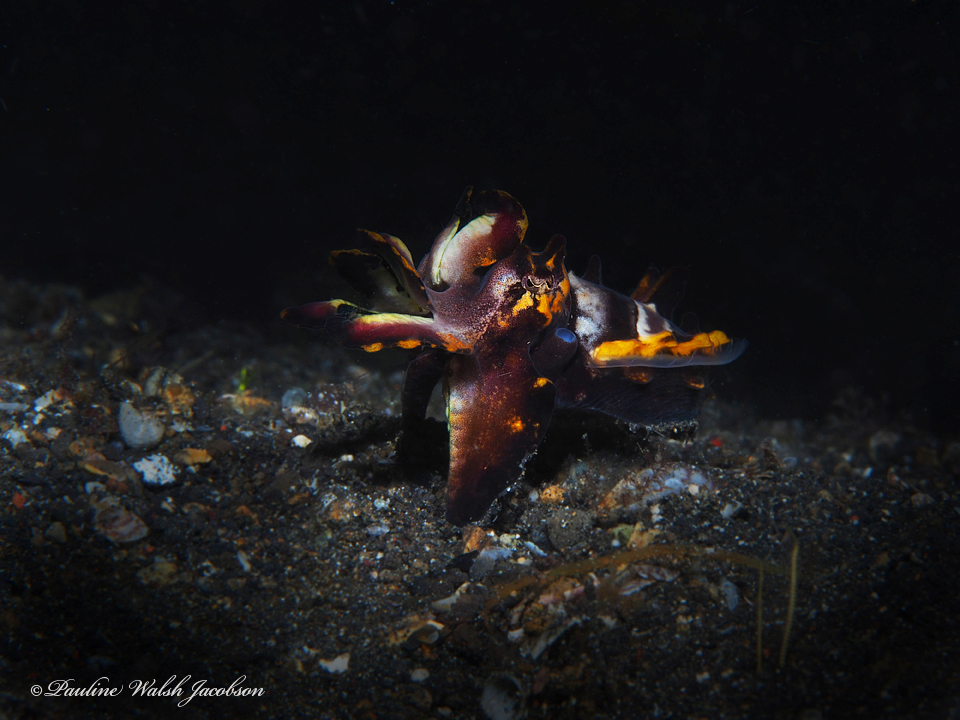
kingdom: Animalia
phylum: Mollusca
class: Cephalopoda
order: Sepiida
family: Sepiidae
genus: Ascarosepion
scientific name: Ascarosepion pfefferi
